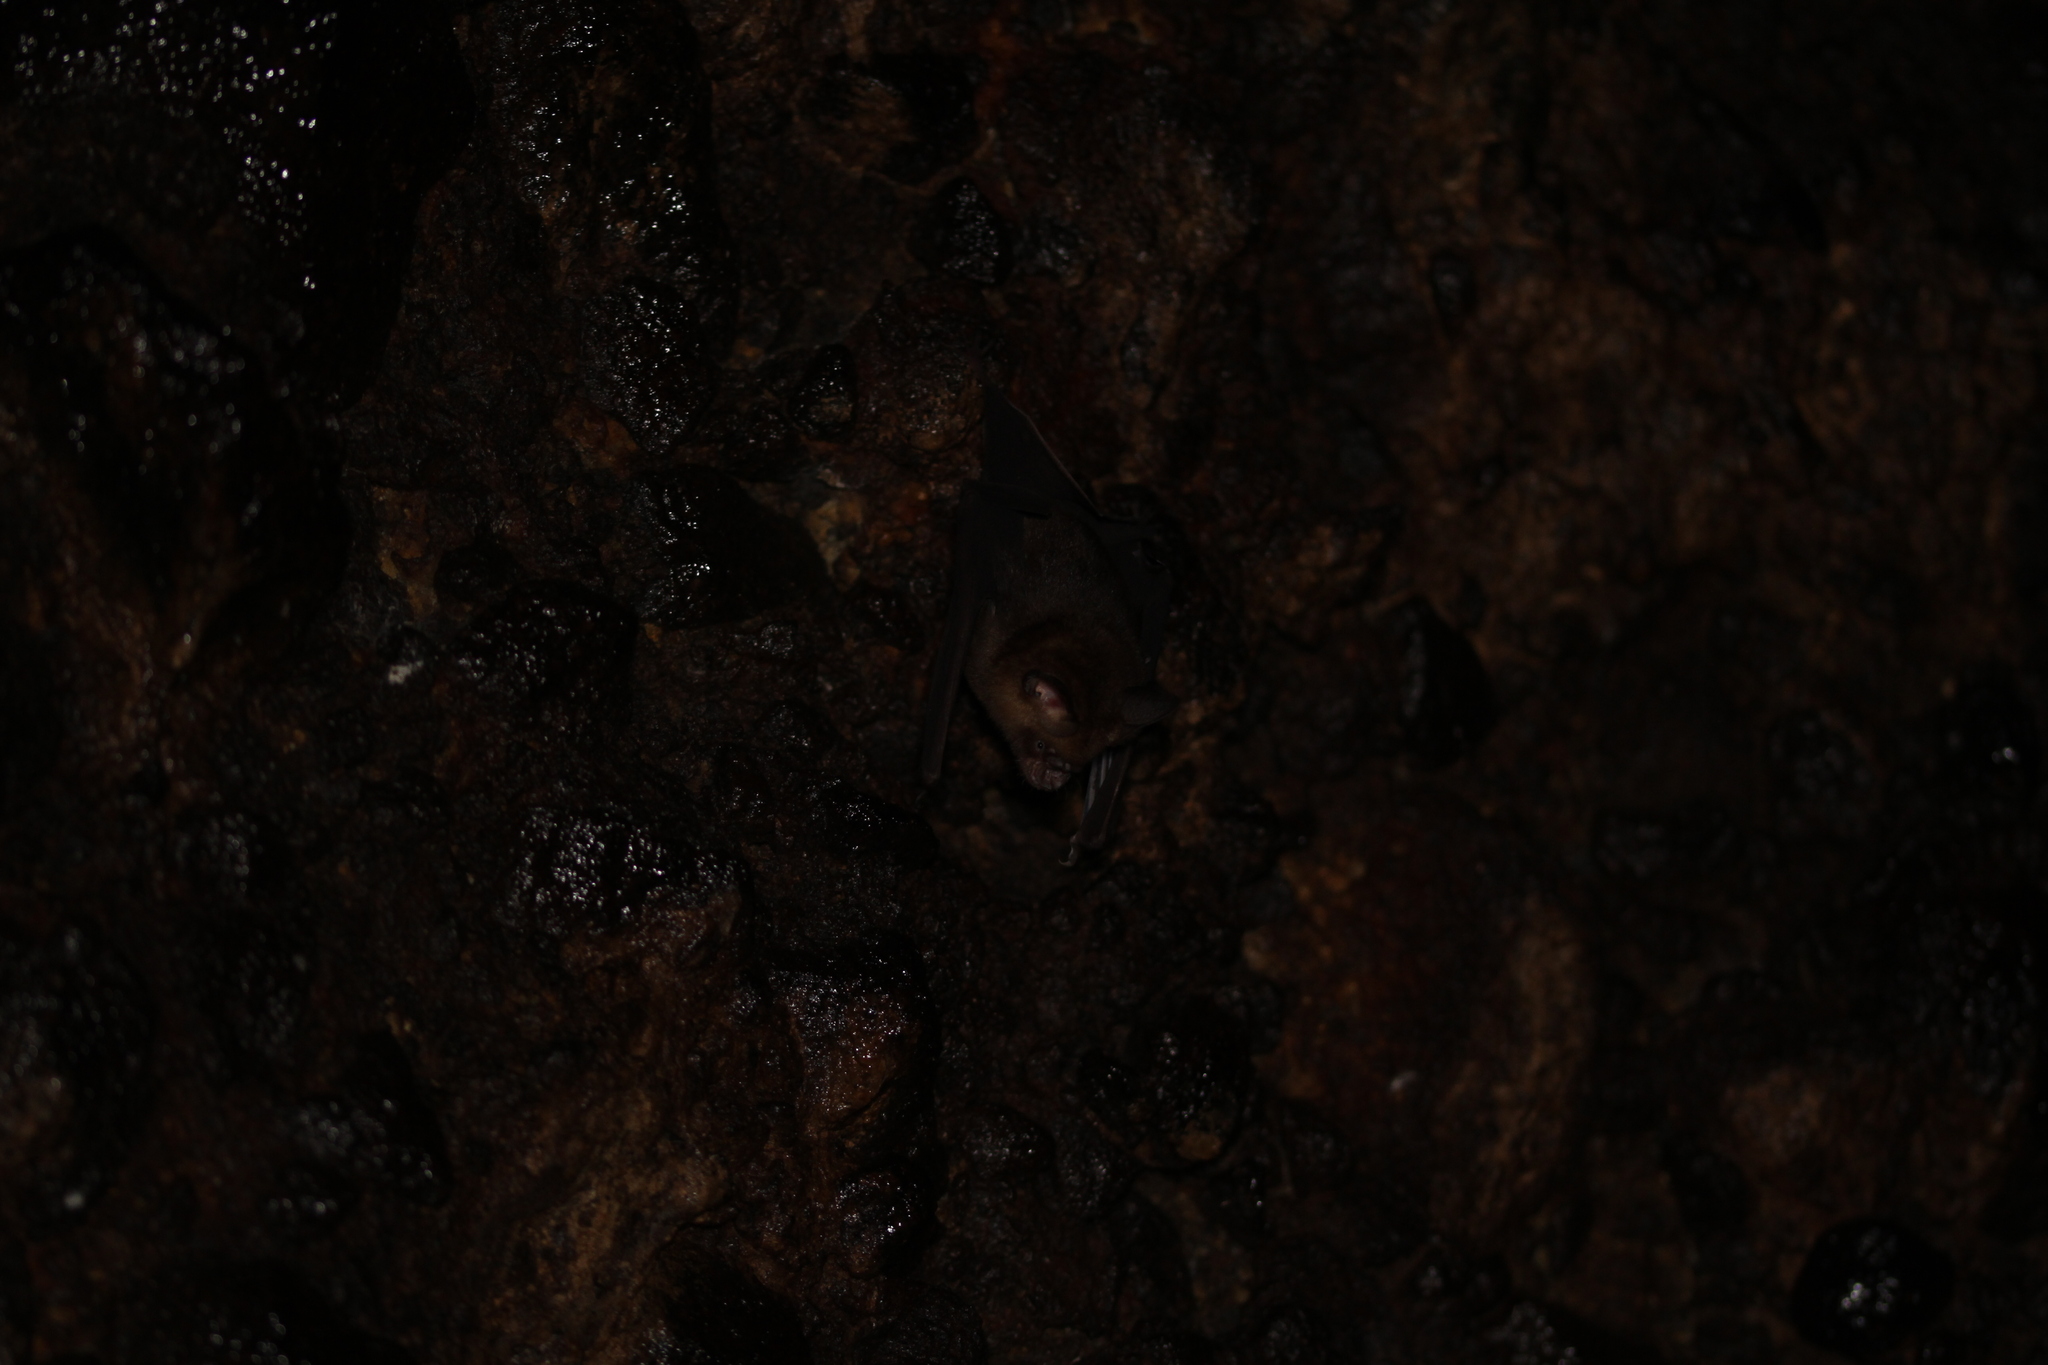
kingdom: Animalia
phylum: Chordata
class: Mammalia
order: Chiroptera
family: Hipposideridae
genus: Hipposideros
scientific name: Hipposideros larvatus
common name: Intermediate leaf-nosed bat
